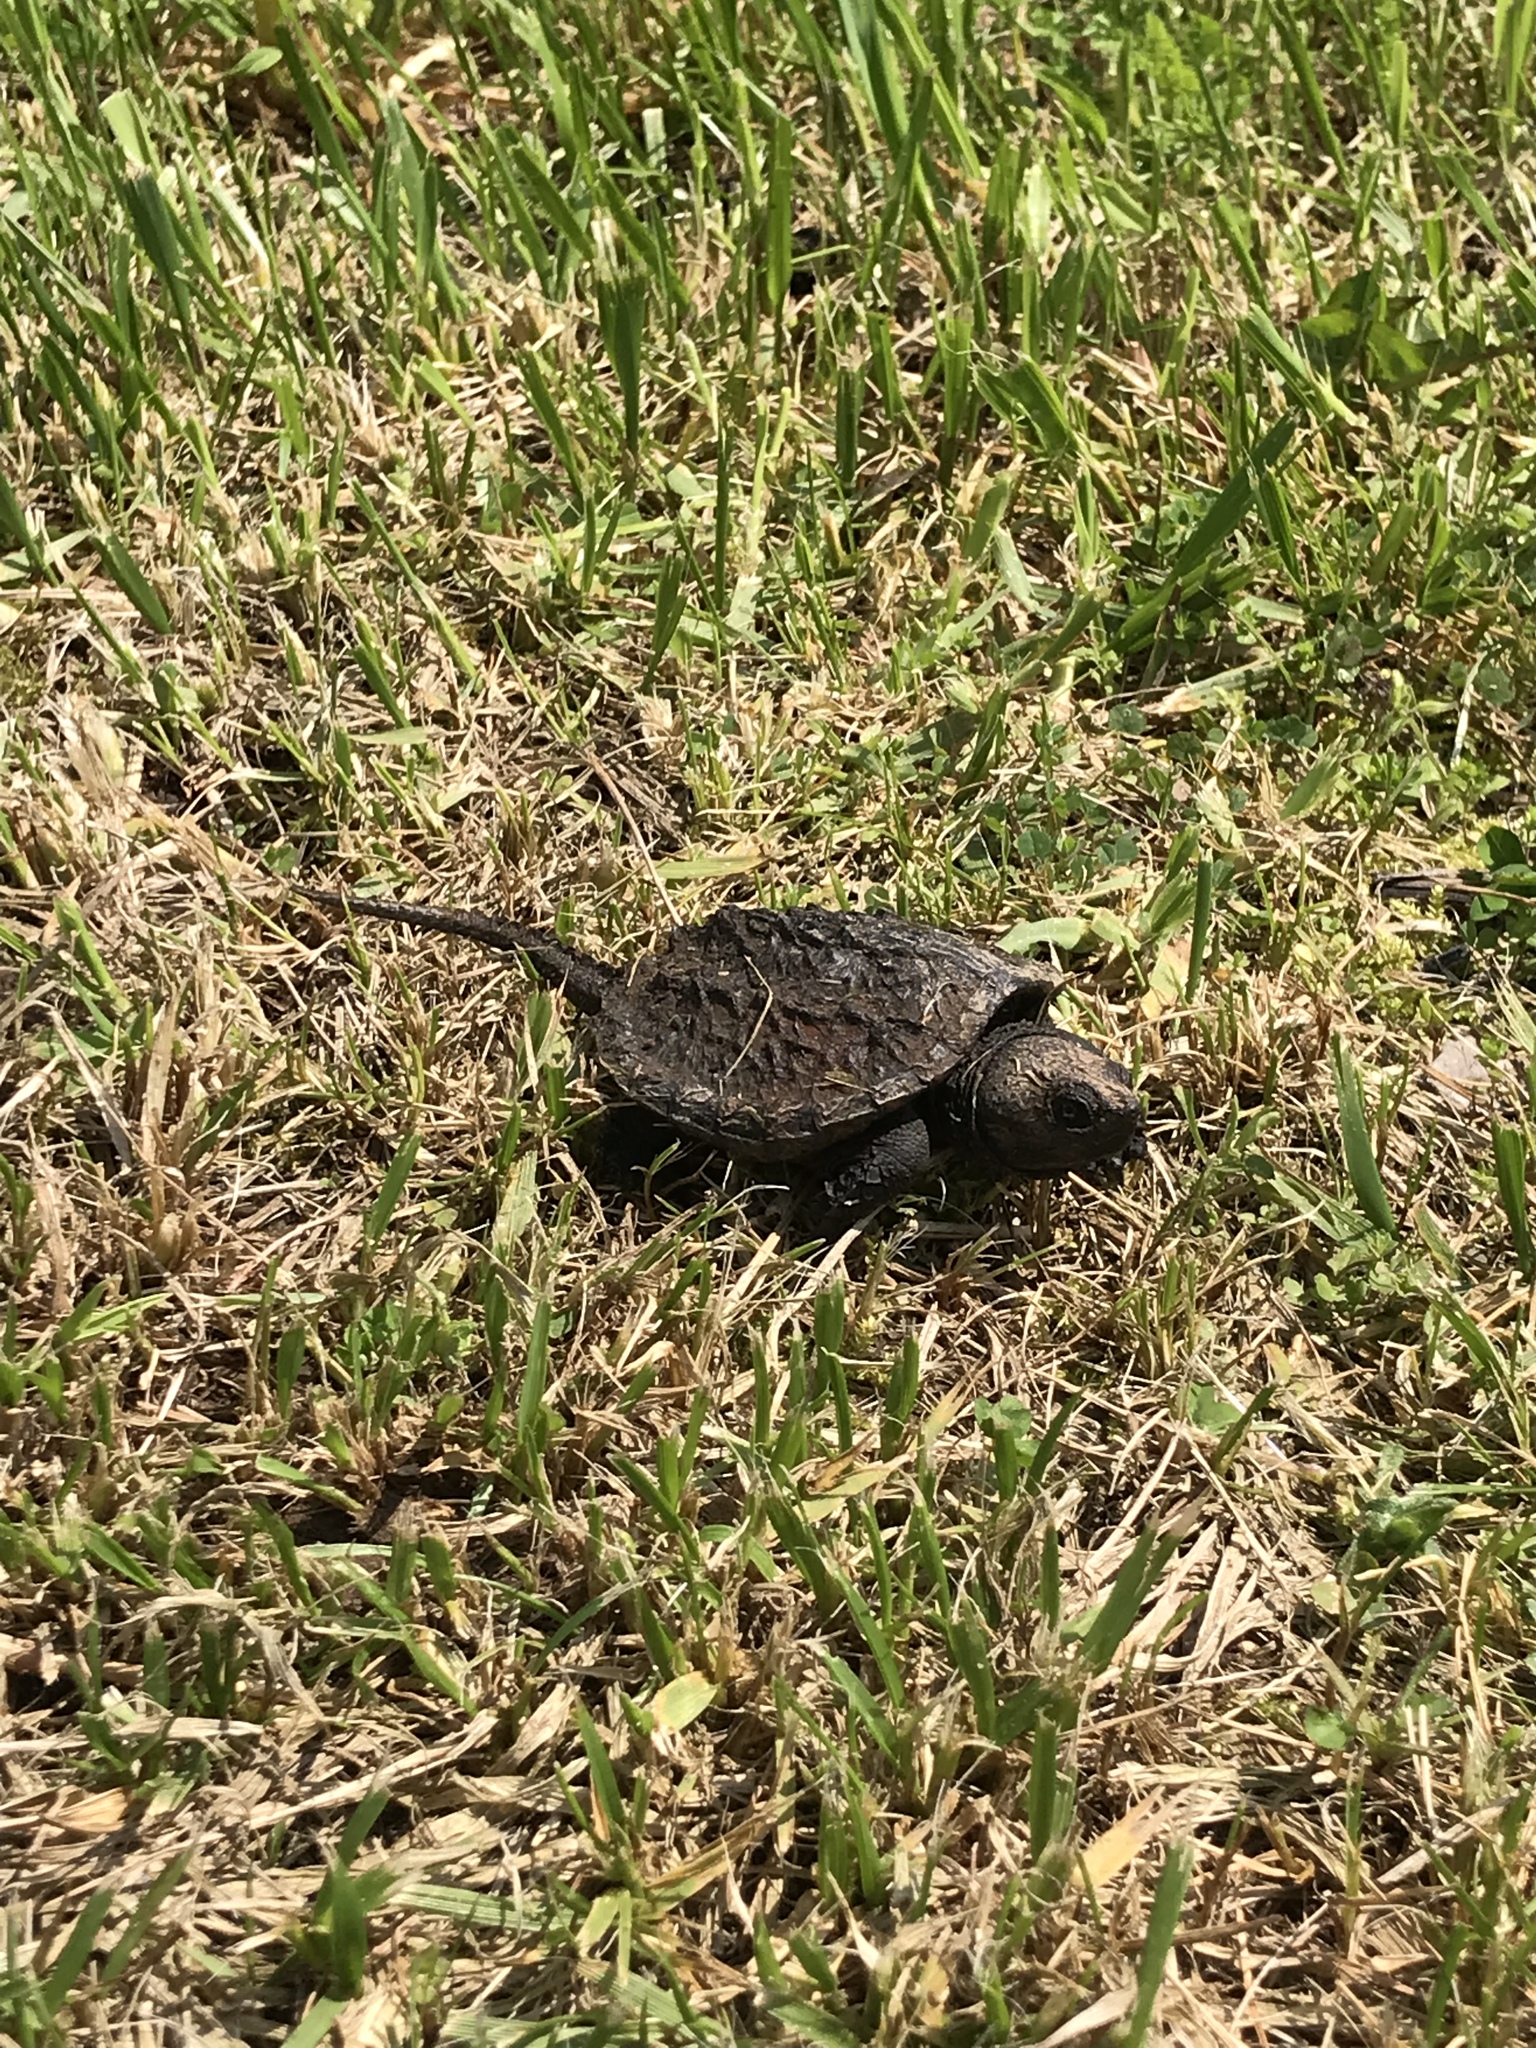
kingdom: Animalia
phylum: Chordata
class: Testudines
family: Chelydridae
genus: Chelydra
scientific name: Chelydra serpentina
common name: Common snapping turtle
